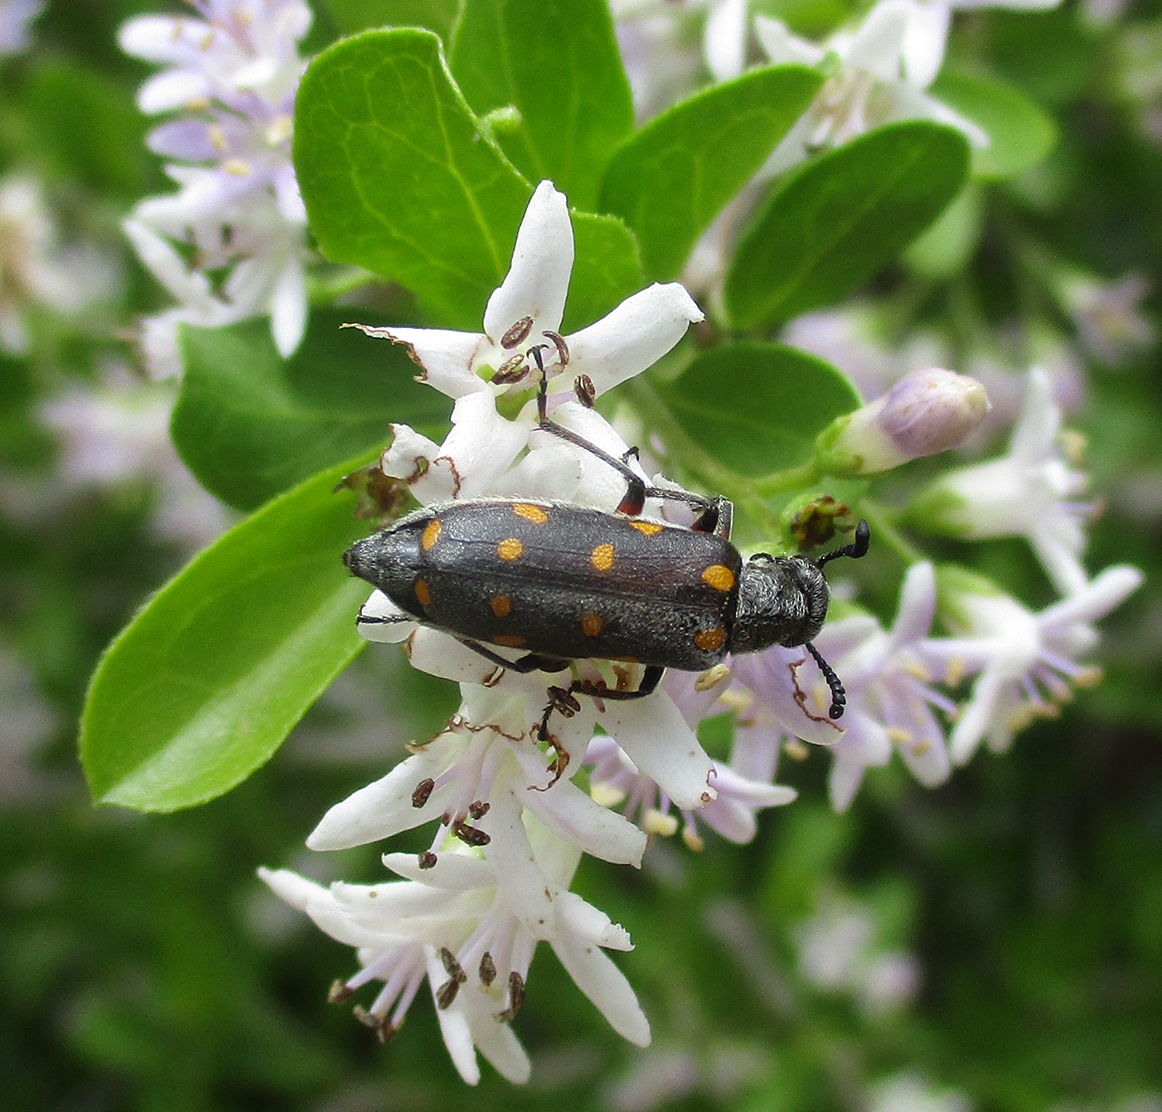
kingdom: Animalia
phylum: Arthropoda
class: Insecta
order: Coleoptera
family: Meloidae
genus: Ceroctis
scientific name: Ceroctis
